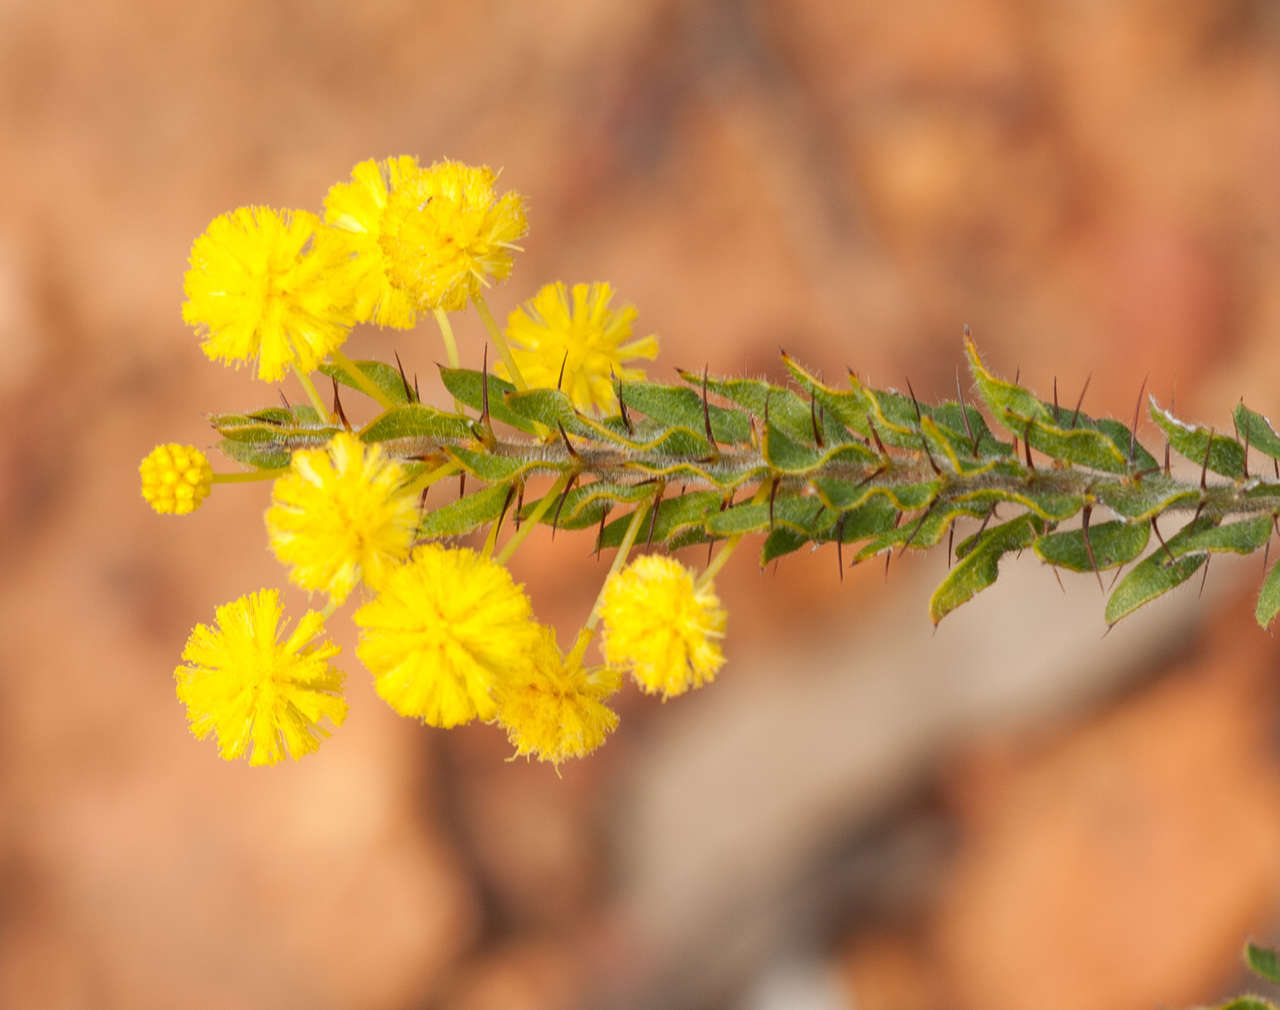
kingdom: Plantae
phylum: Tracheophyta
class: Magnoliopsida
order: Fabales
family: Fabaceae
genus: Acacia
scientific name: Acacia paradoxa
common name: Paradox acacia
